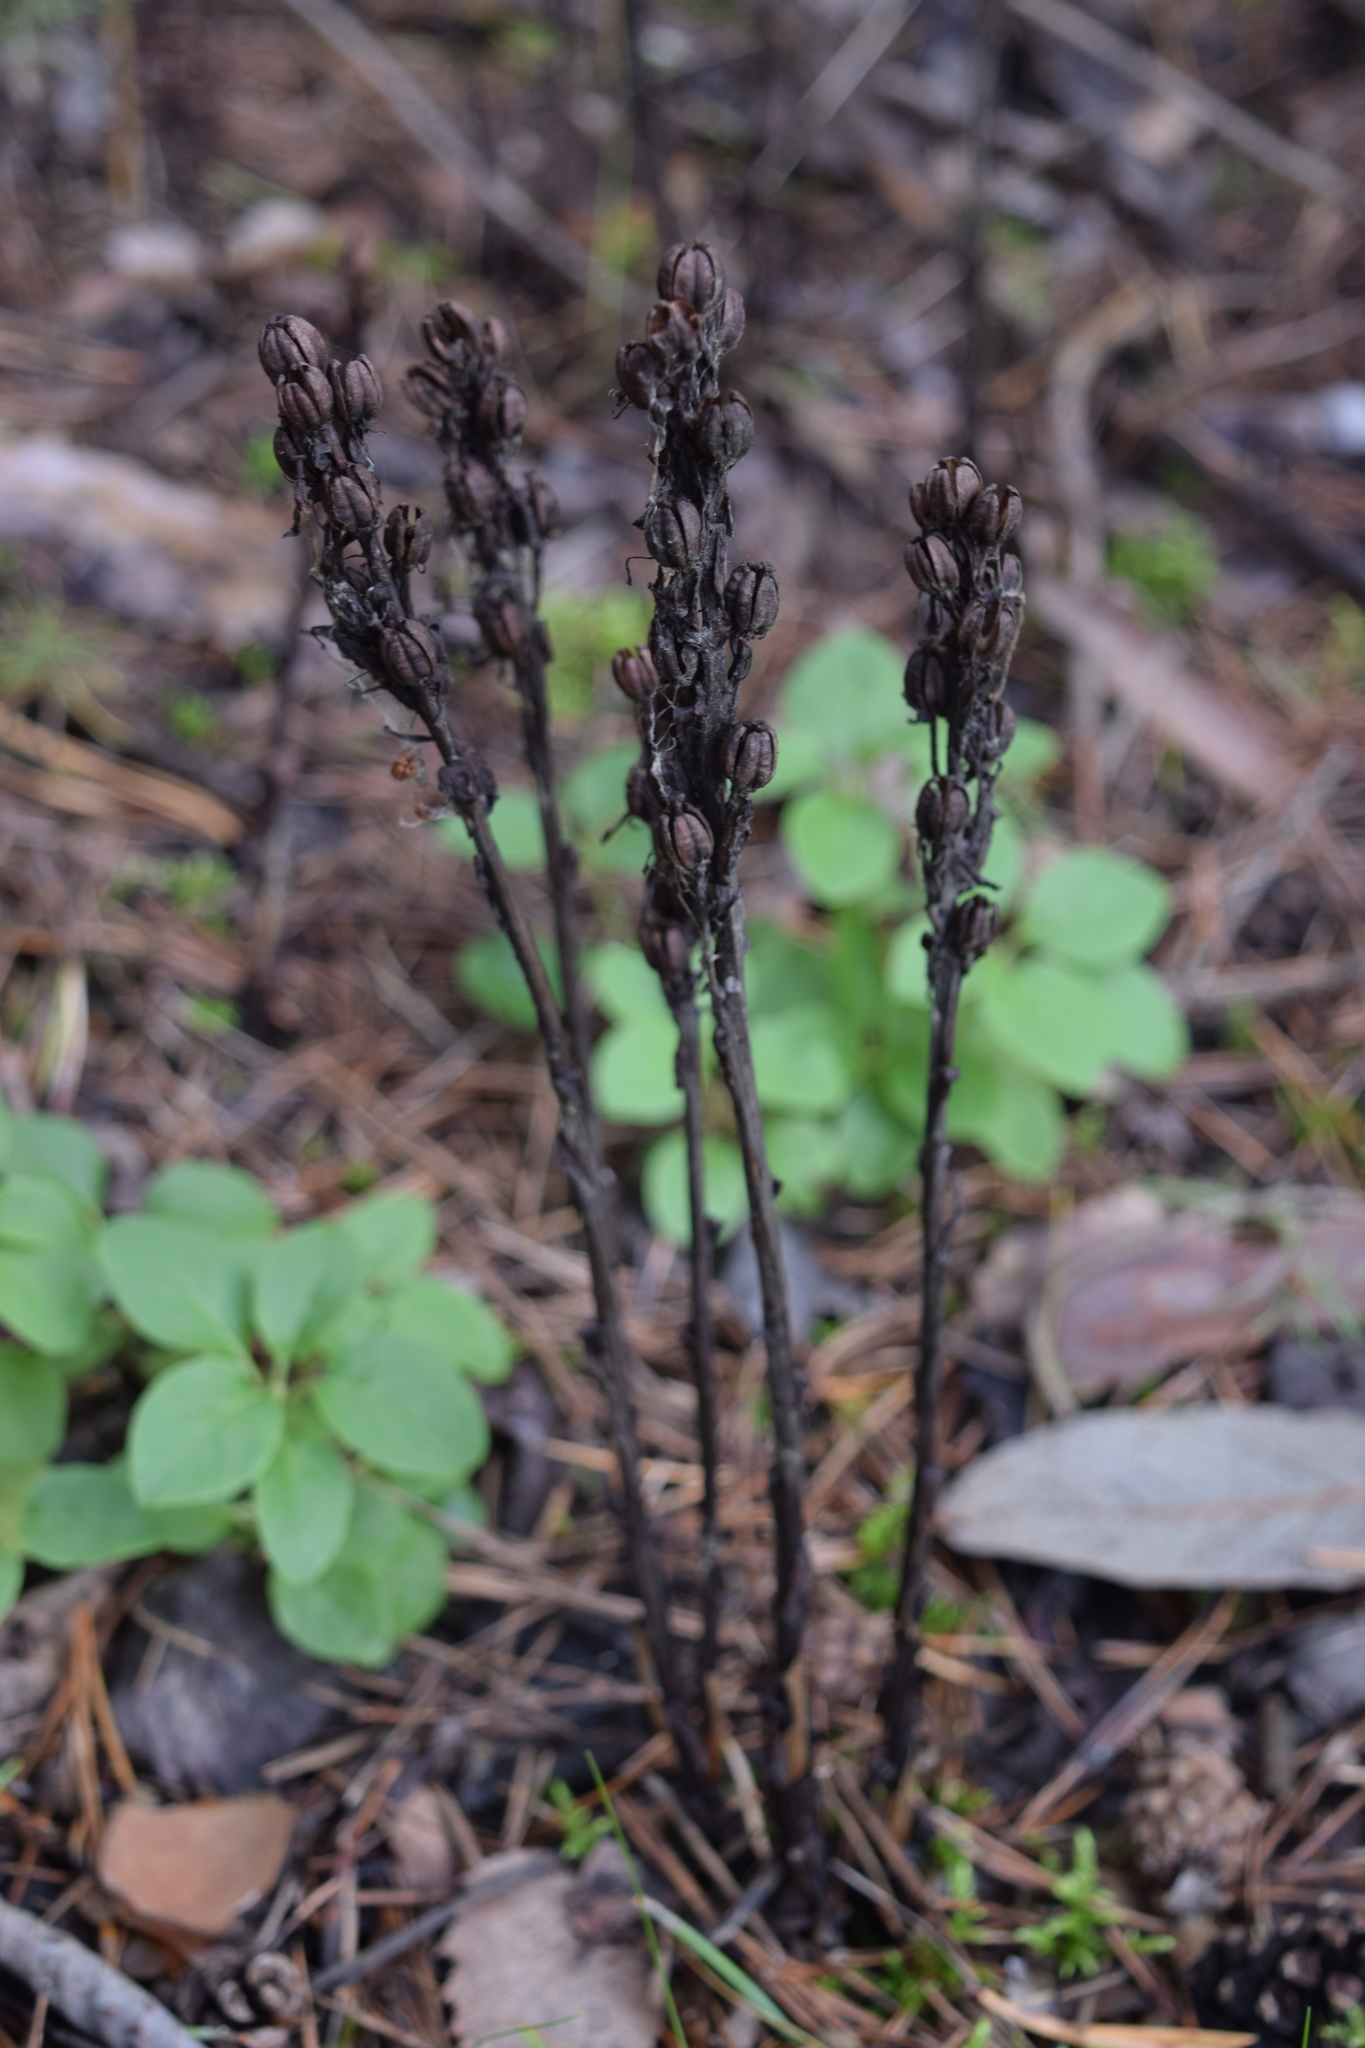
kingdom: Plantae
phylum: Tracheophyta
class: Magnoliopsida
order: Ericales
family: Ericaceae
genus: Hypopitys
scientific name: Hypopitys monotropa
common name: Yellow bird's-nest
